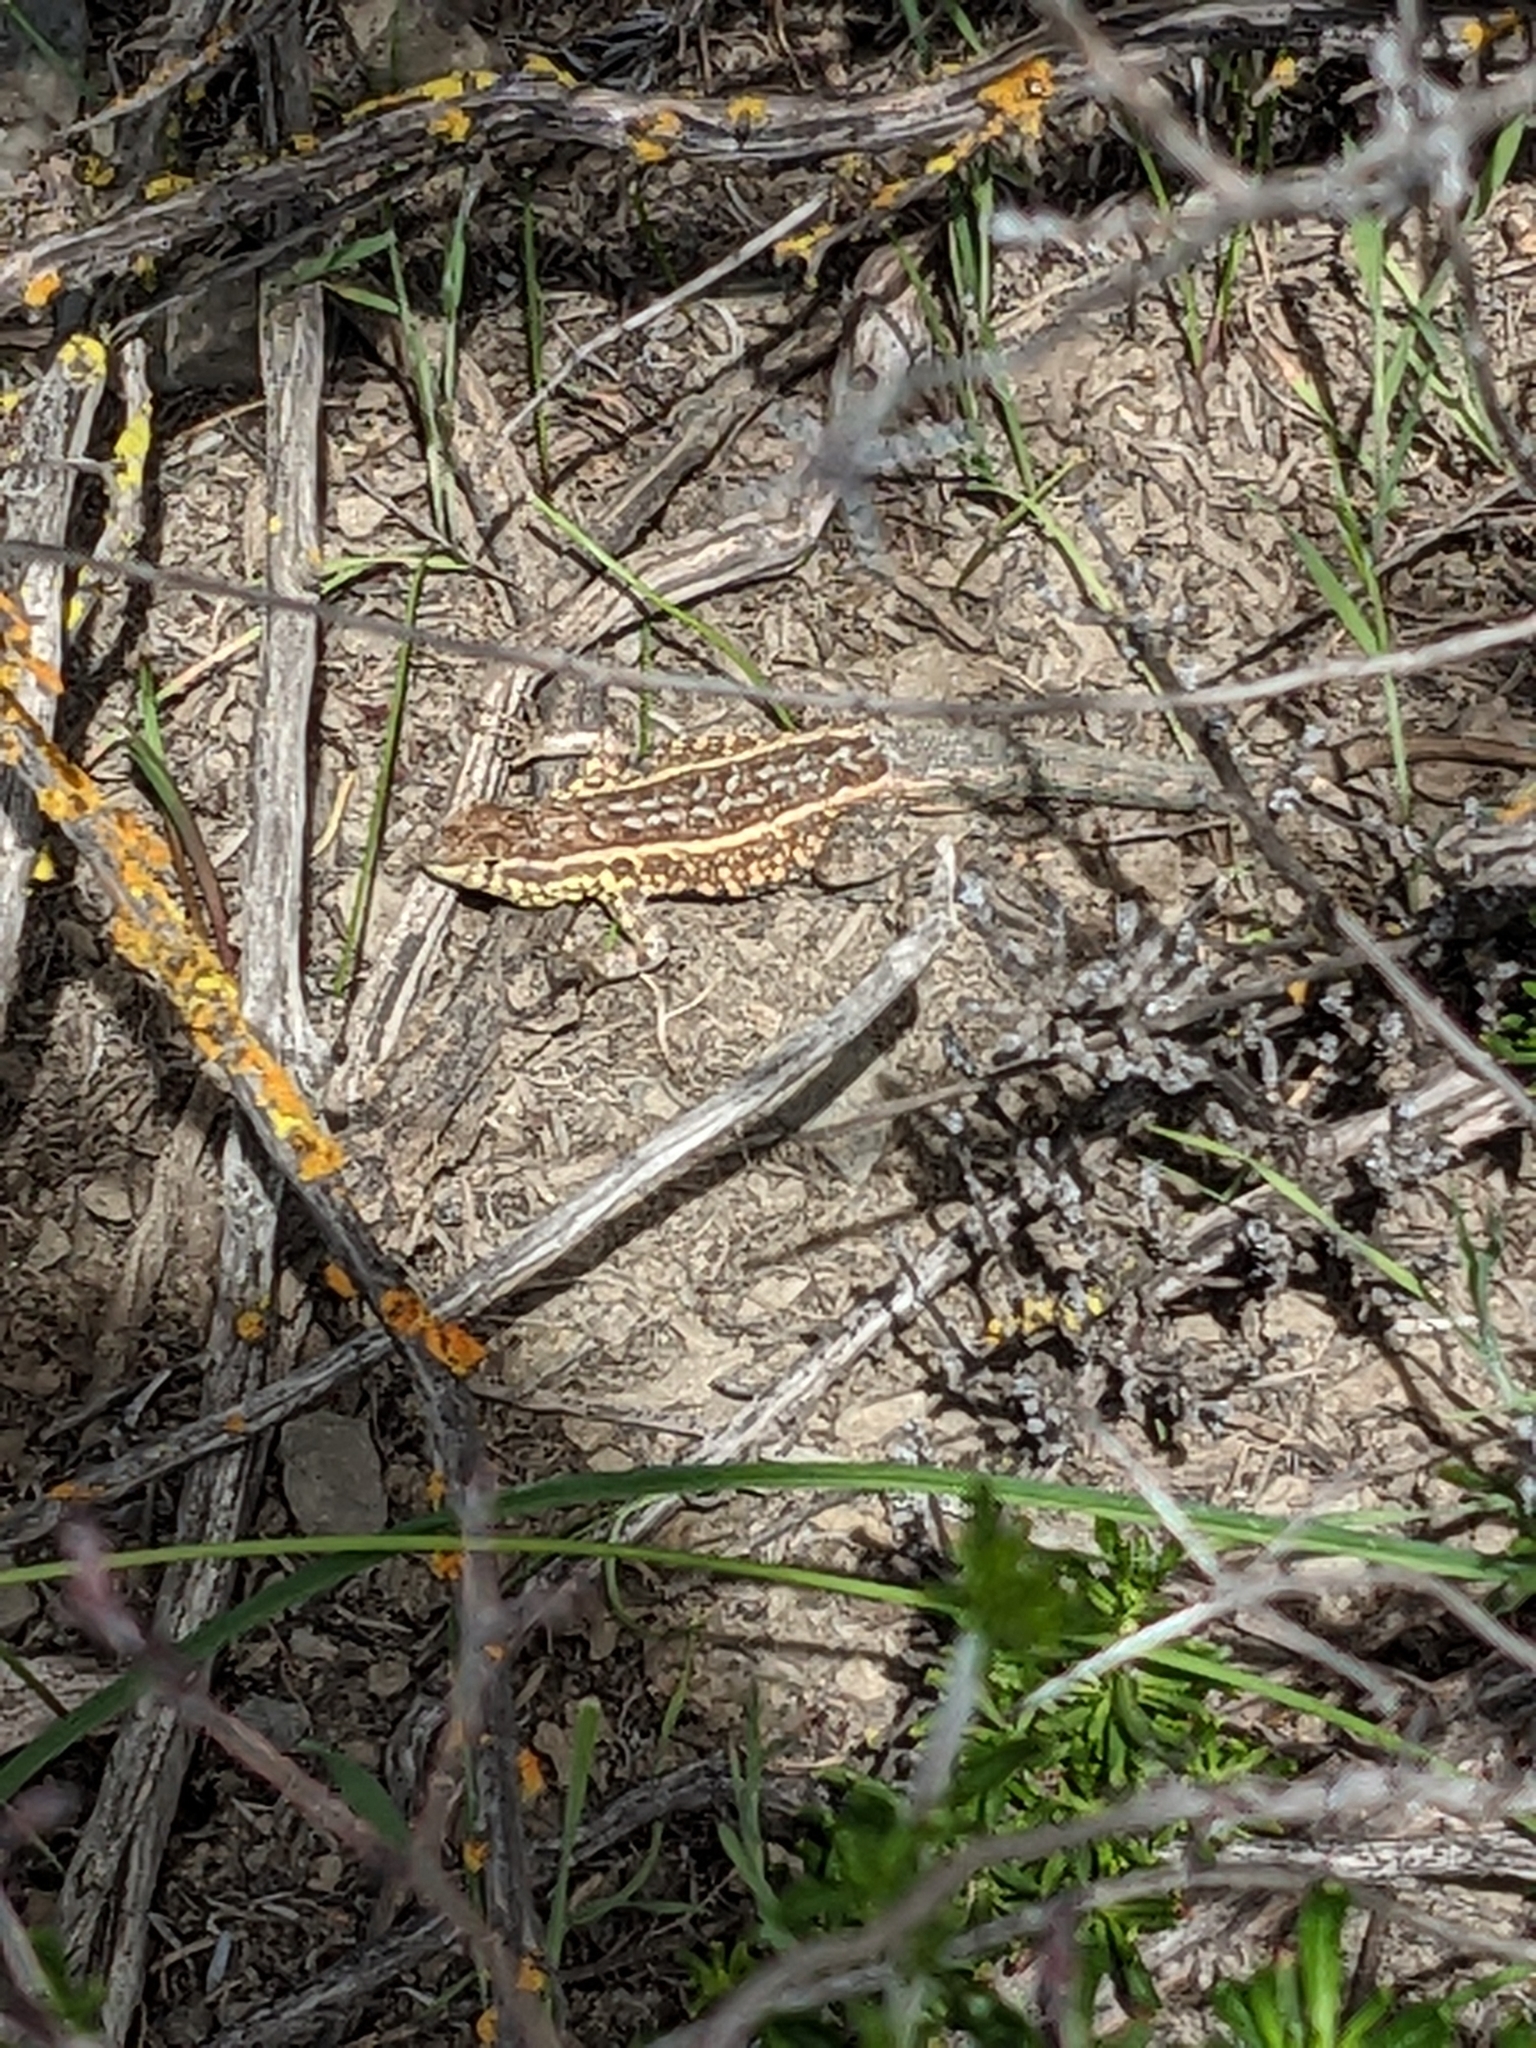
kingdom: Animalia
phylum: Chordata
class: Squamata
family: Phrynosomatidae
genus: Uta
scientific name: Uta stansburiana
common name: Side-blotched lizard
